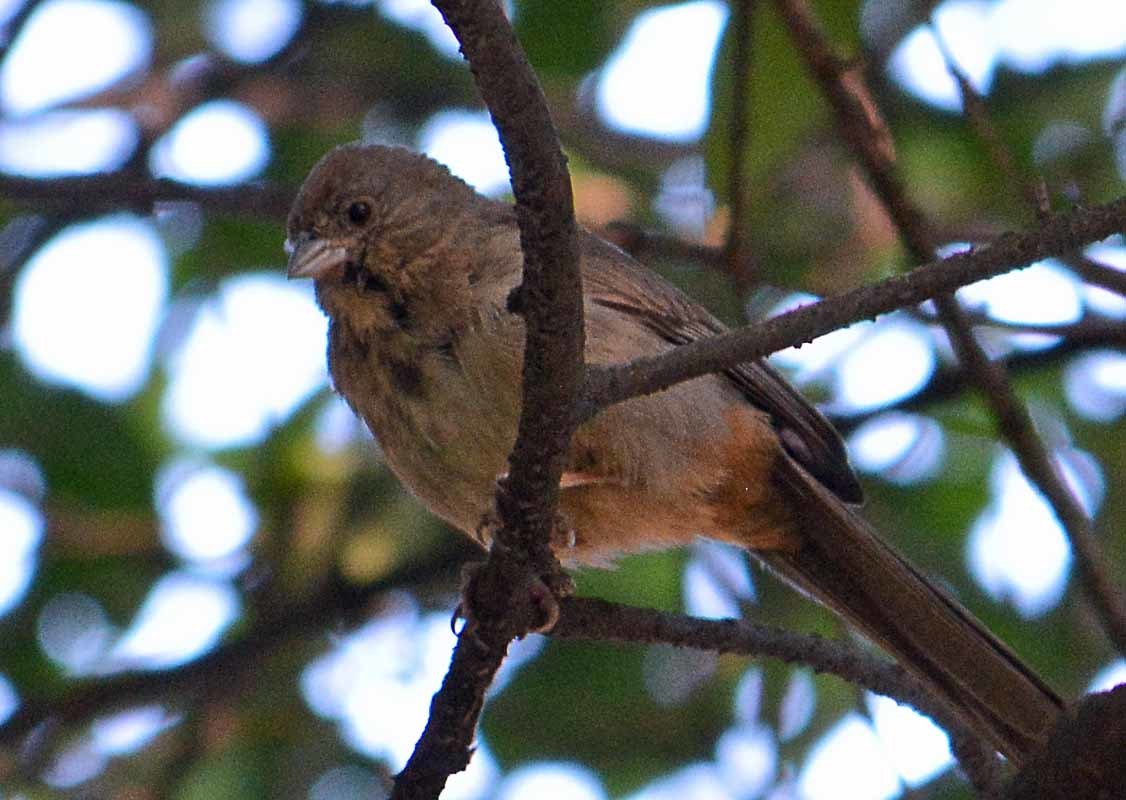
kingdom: Animalia
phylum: Chordata
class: Aves
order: Passeriformes
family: Passerellidae
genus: Melozone
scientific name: Melozone fusca
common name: Canyon towhee
